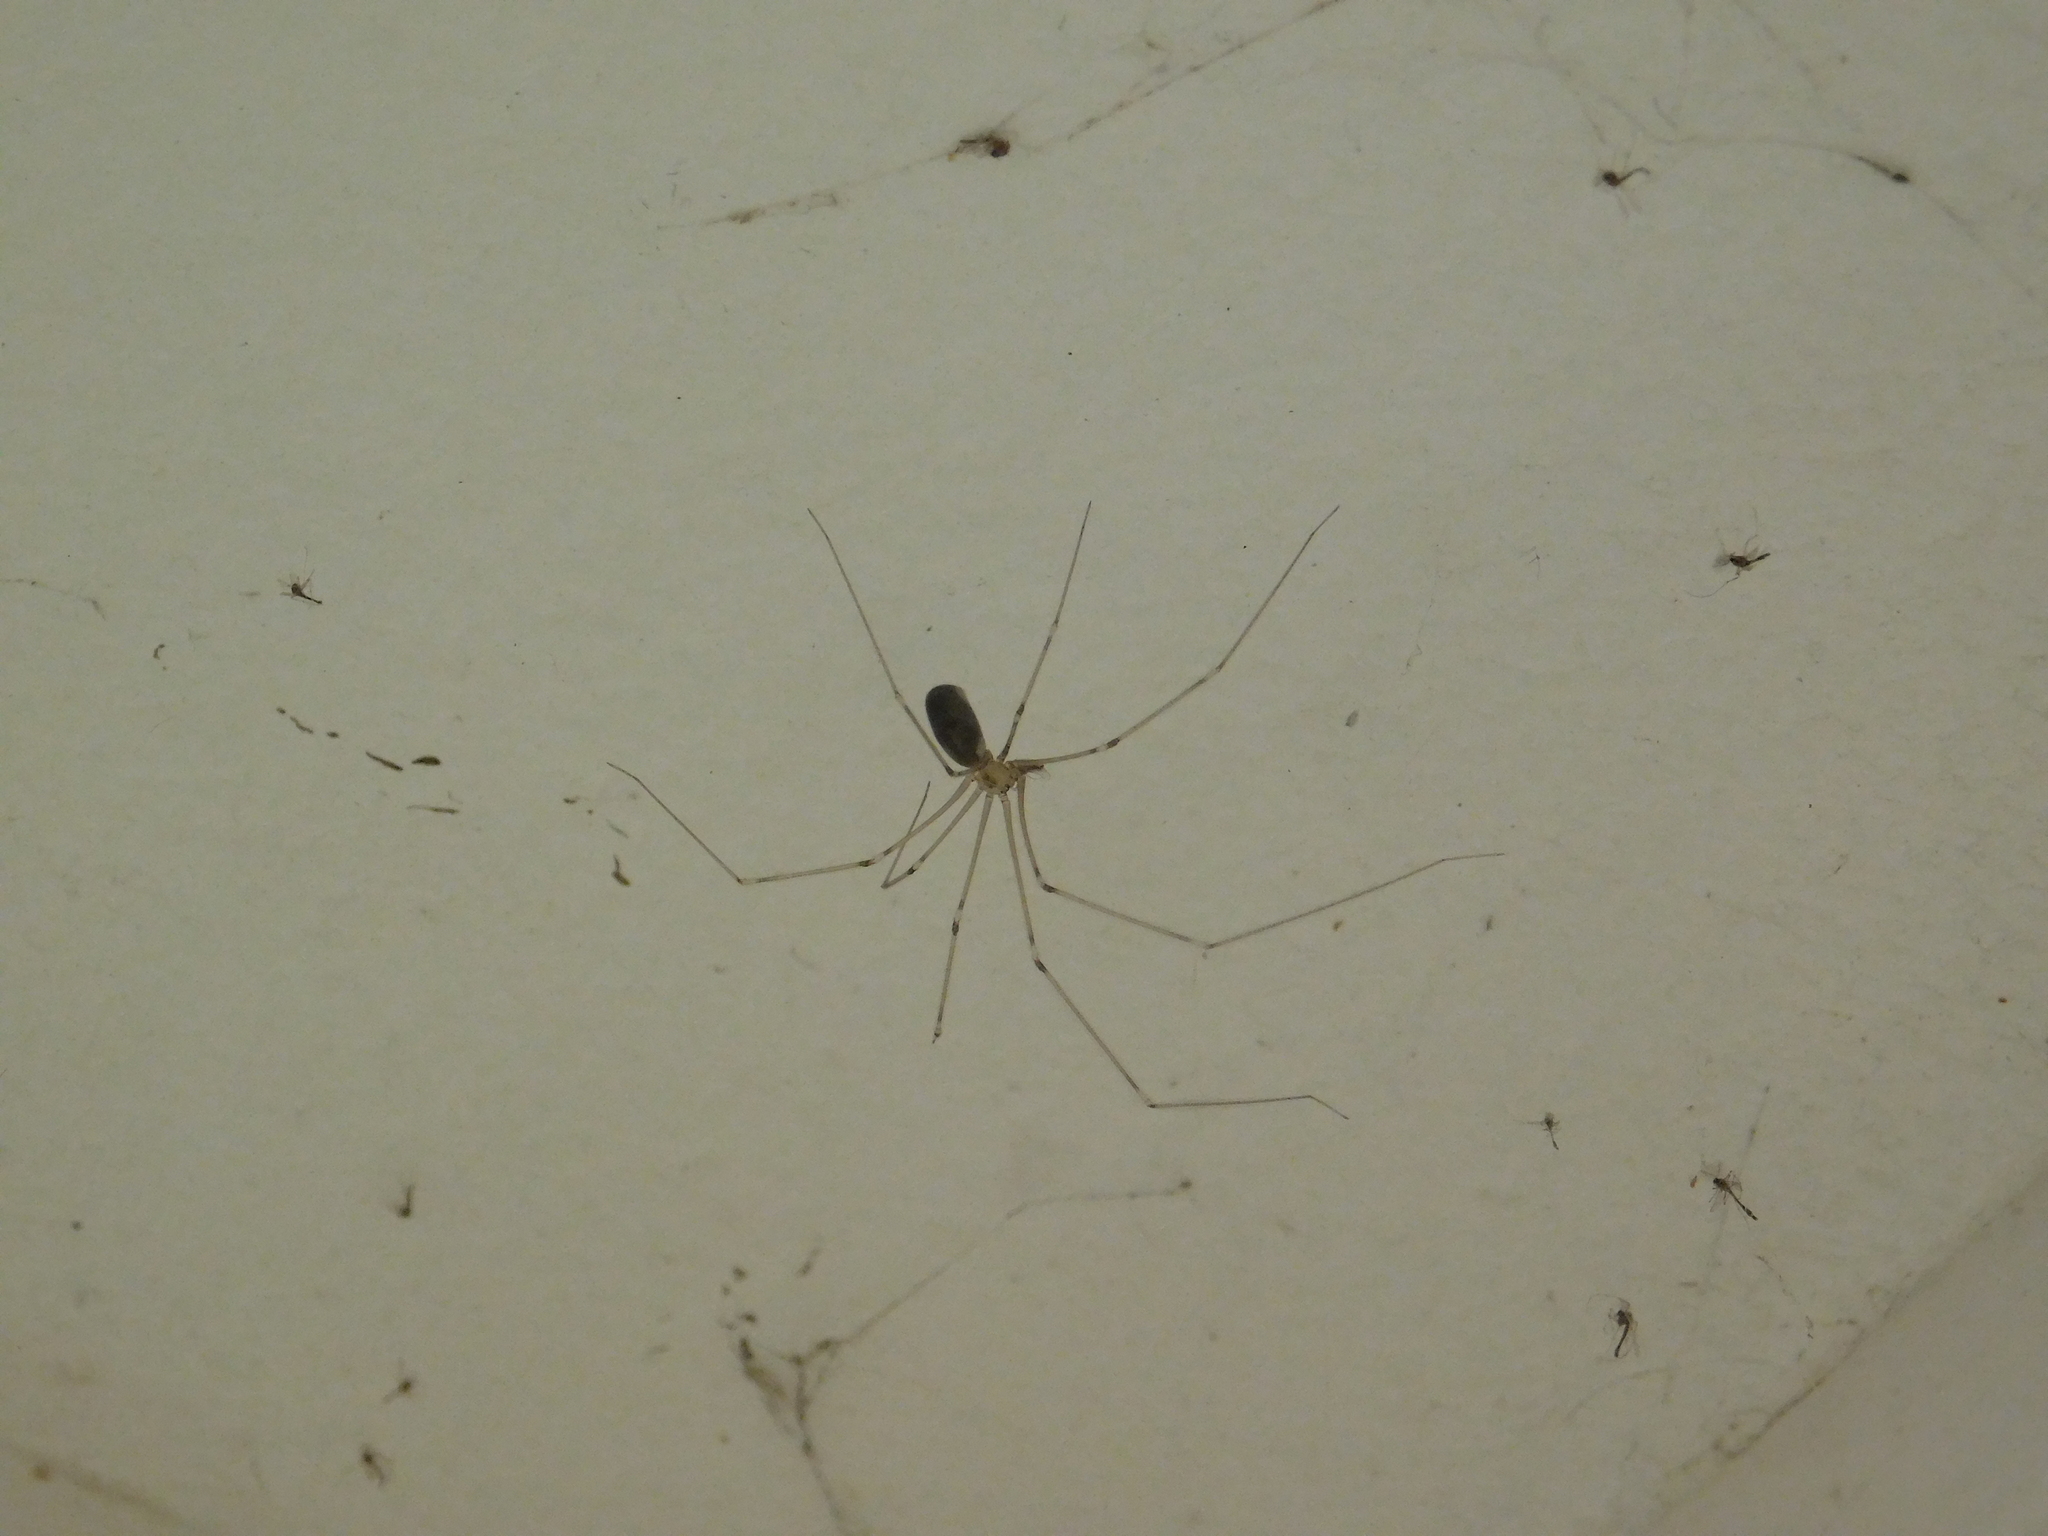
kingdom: Animalia
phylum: Arthropoda
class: Arachnida
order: Araneae
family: Pholcidae
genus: Pholcus
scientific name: Pholcus phalangioides
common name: Longbodied cellar spider
